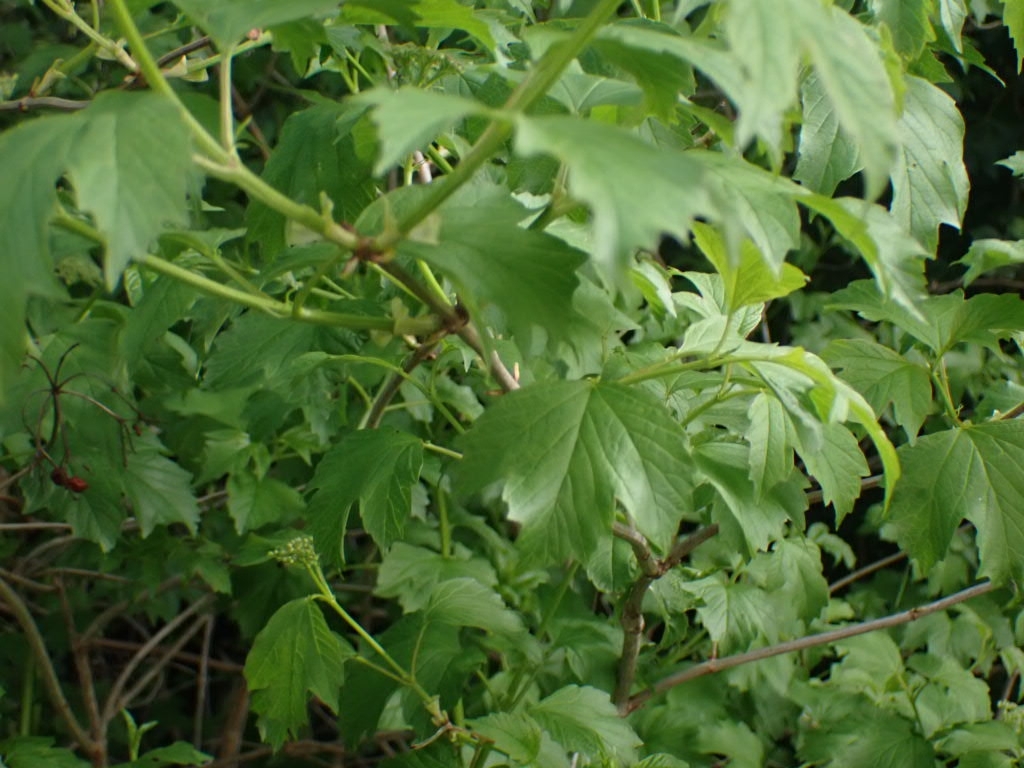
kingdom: Plantae
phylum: Tracheophyta
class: Magnoliopsida
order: Dipsacales
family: Viburnaceae
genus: Viburnum
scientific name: Viburnum opulus
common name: Guelder-rose
